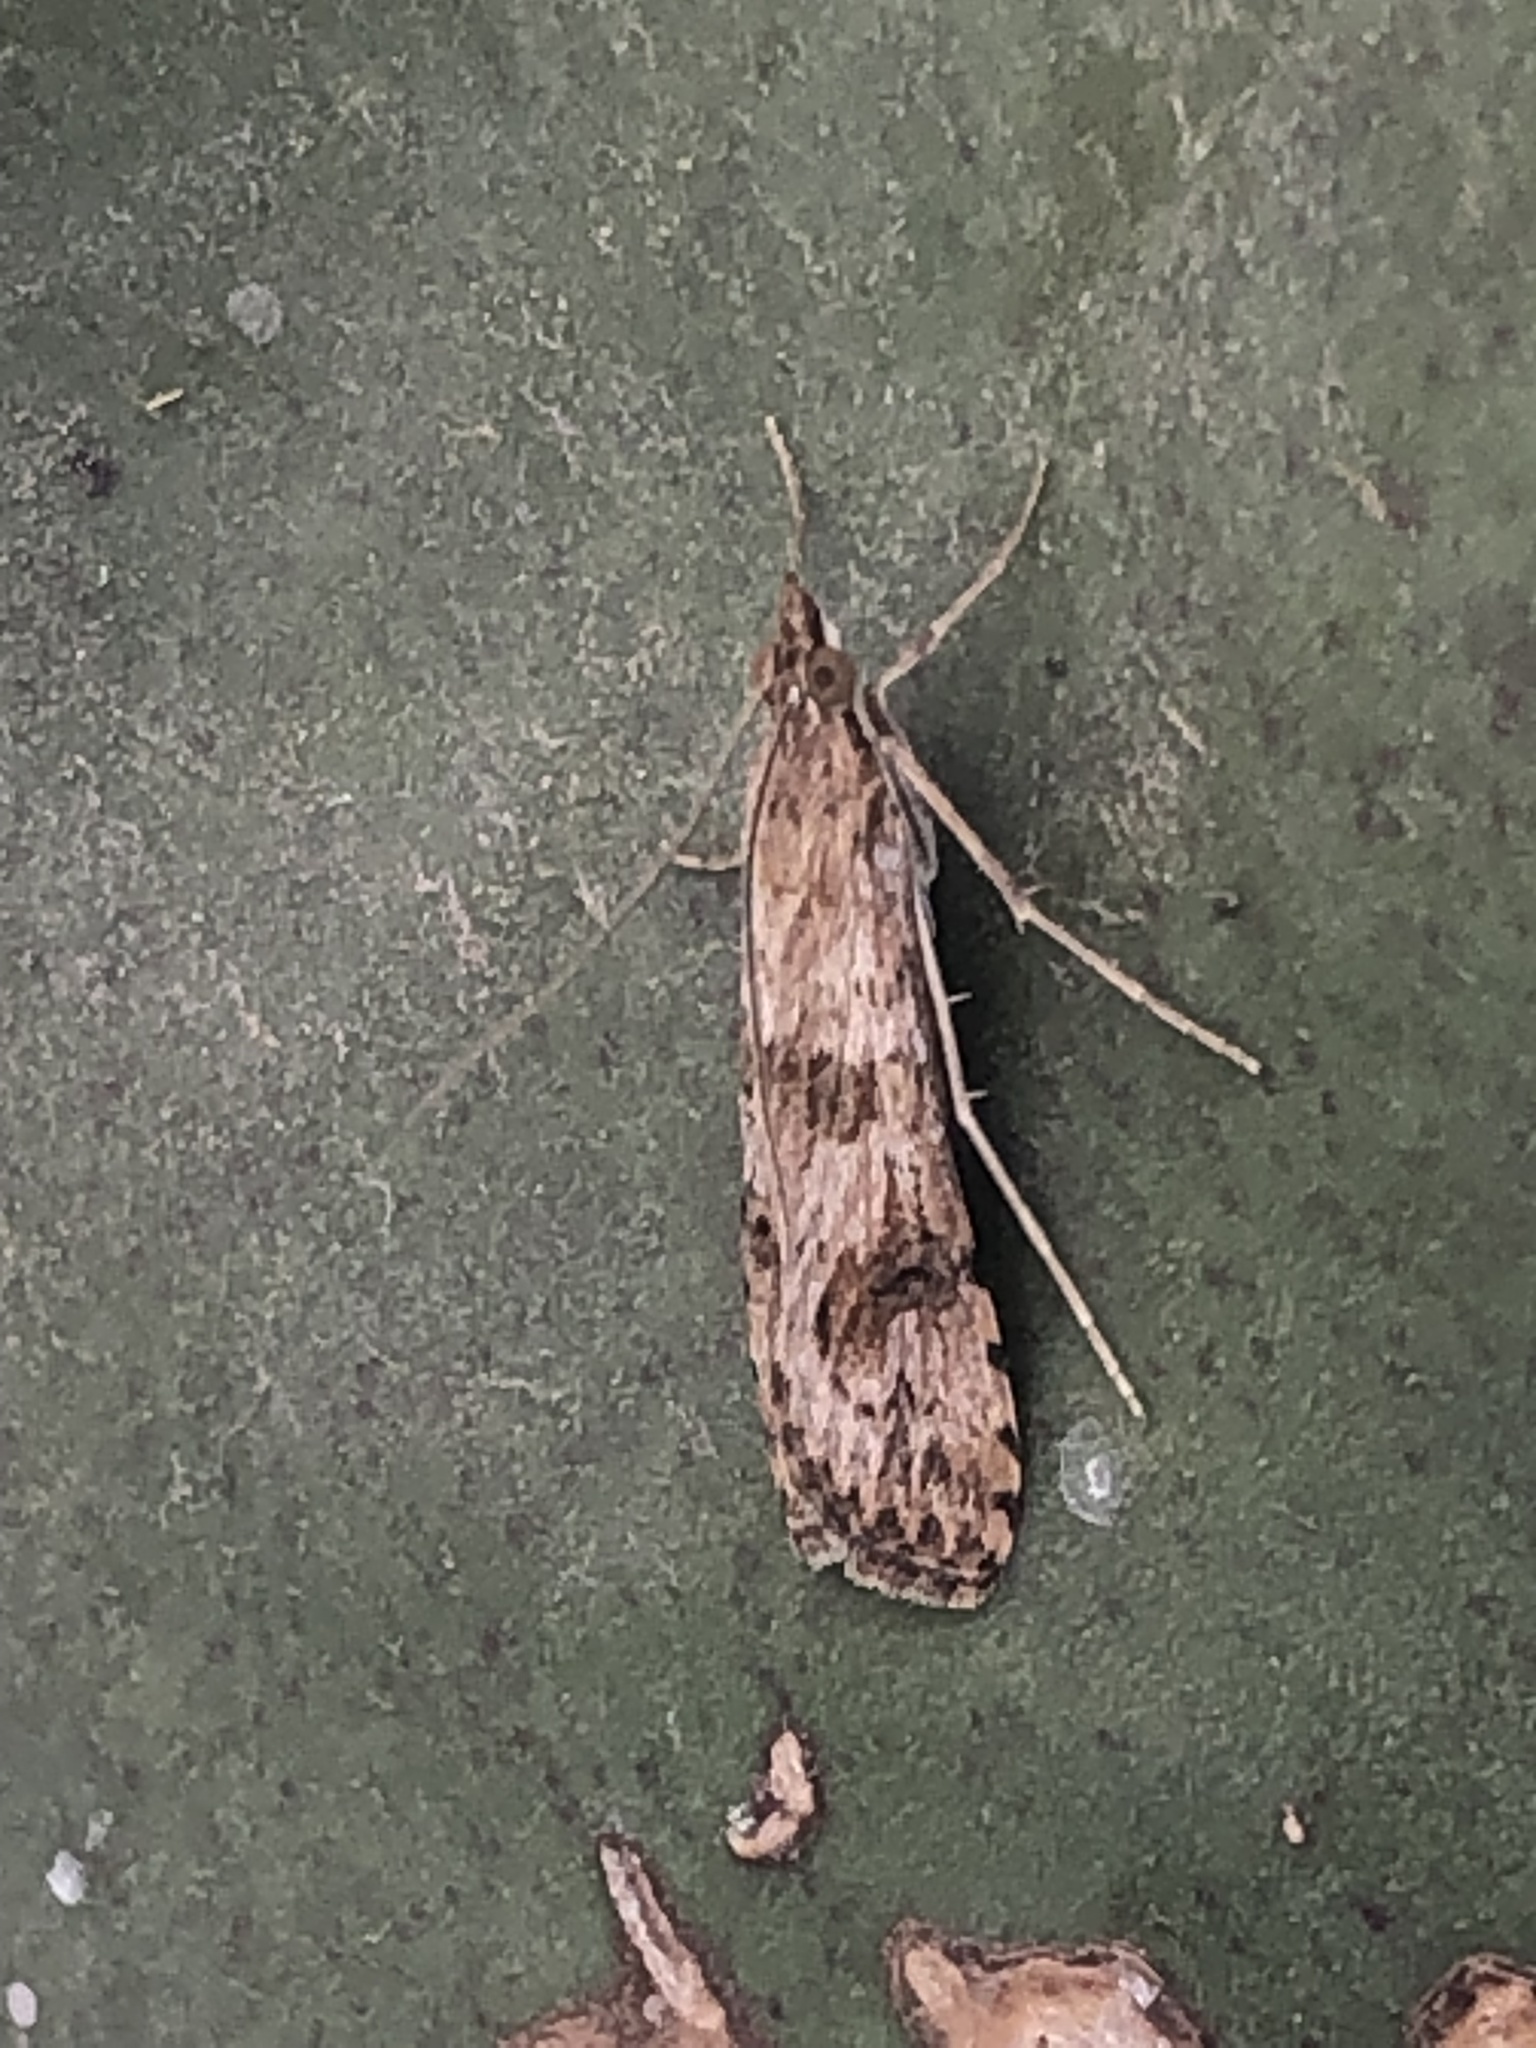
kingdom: Animalia
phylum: Arthropoda
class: Insecta
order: Lepidoptera
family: Crambidae
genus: Nomophila
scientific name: Nomophila distinctalis
